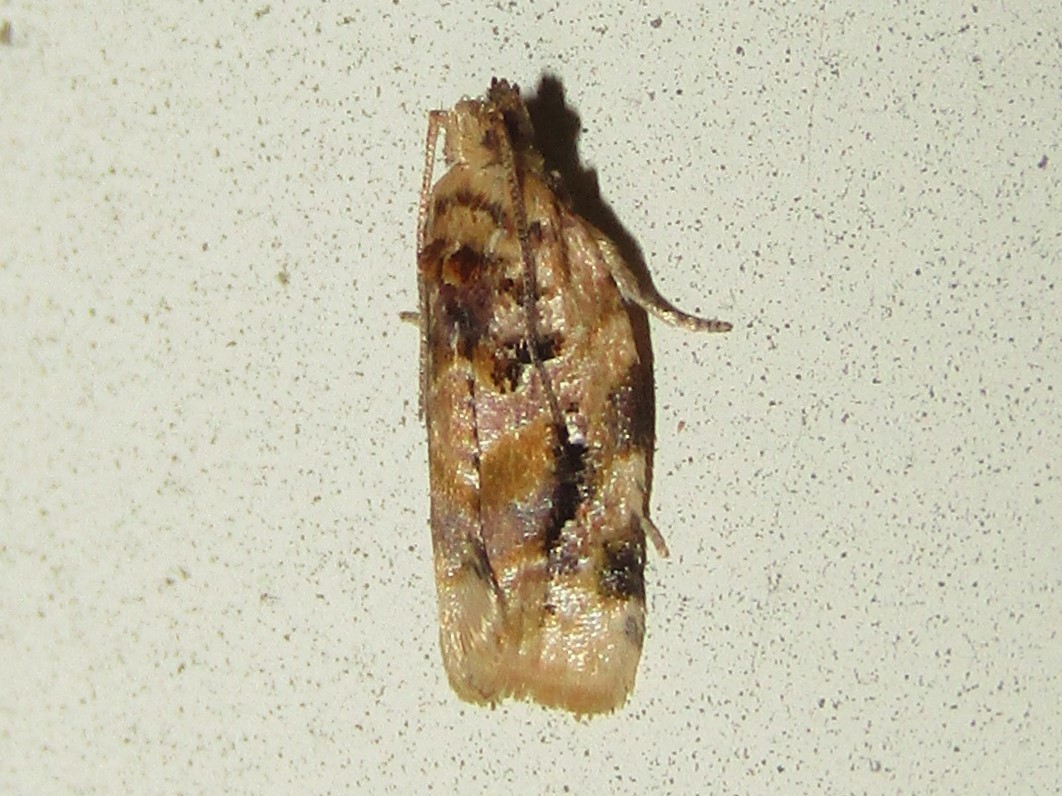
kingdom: Animalia
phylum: Arthropoda
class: Insecta
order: Lepidoptera
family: Tortricidae
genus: Argyrotaenia
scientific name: Argyrotaenia velutinana
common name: Red-banded leafroller moth
